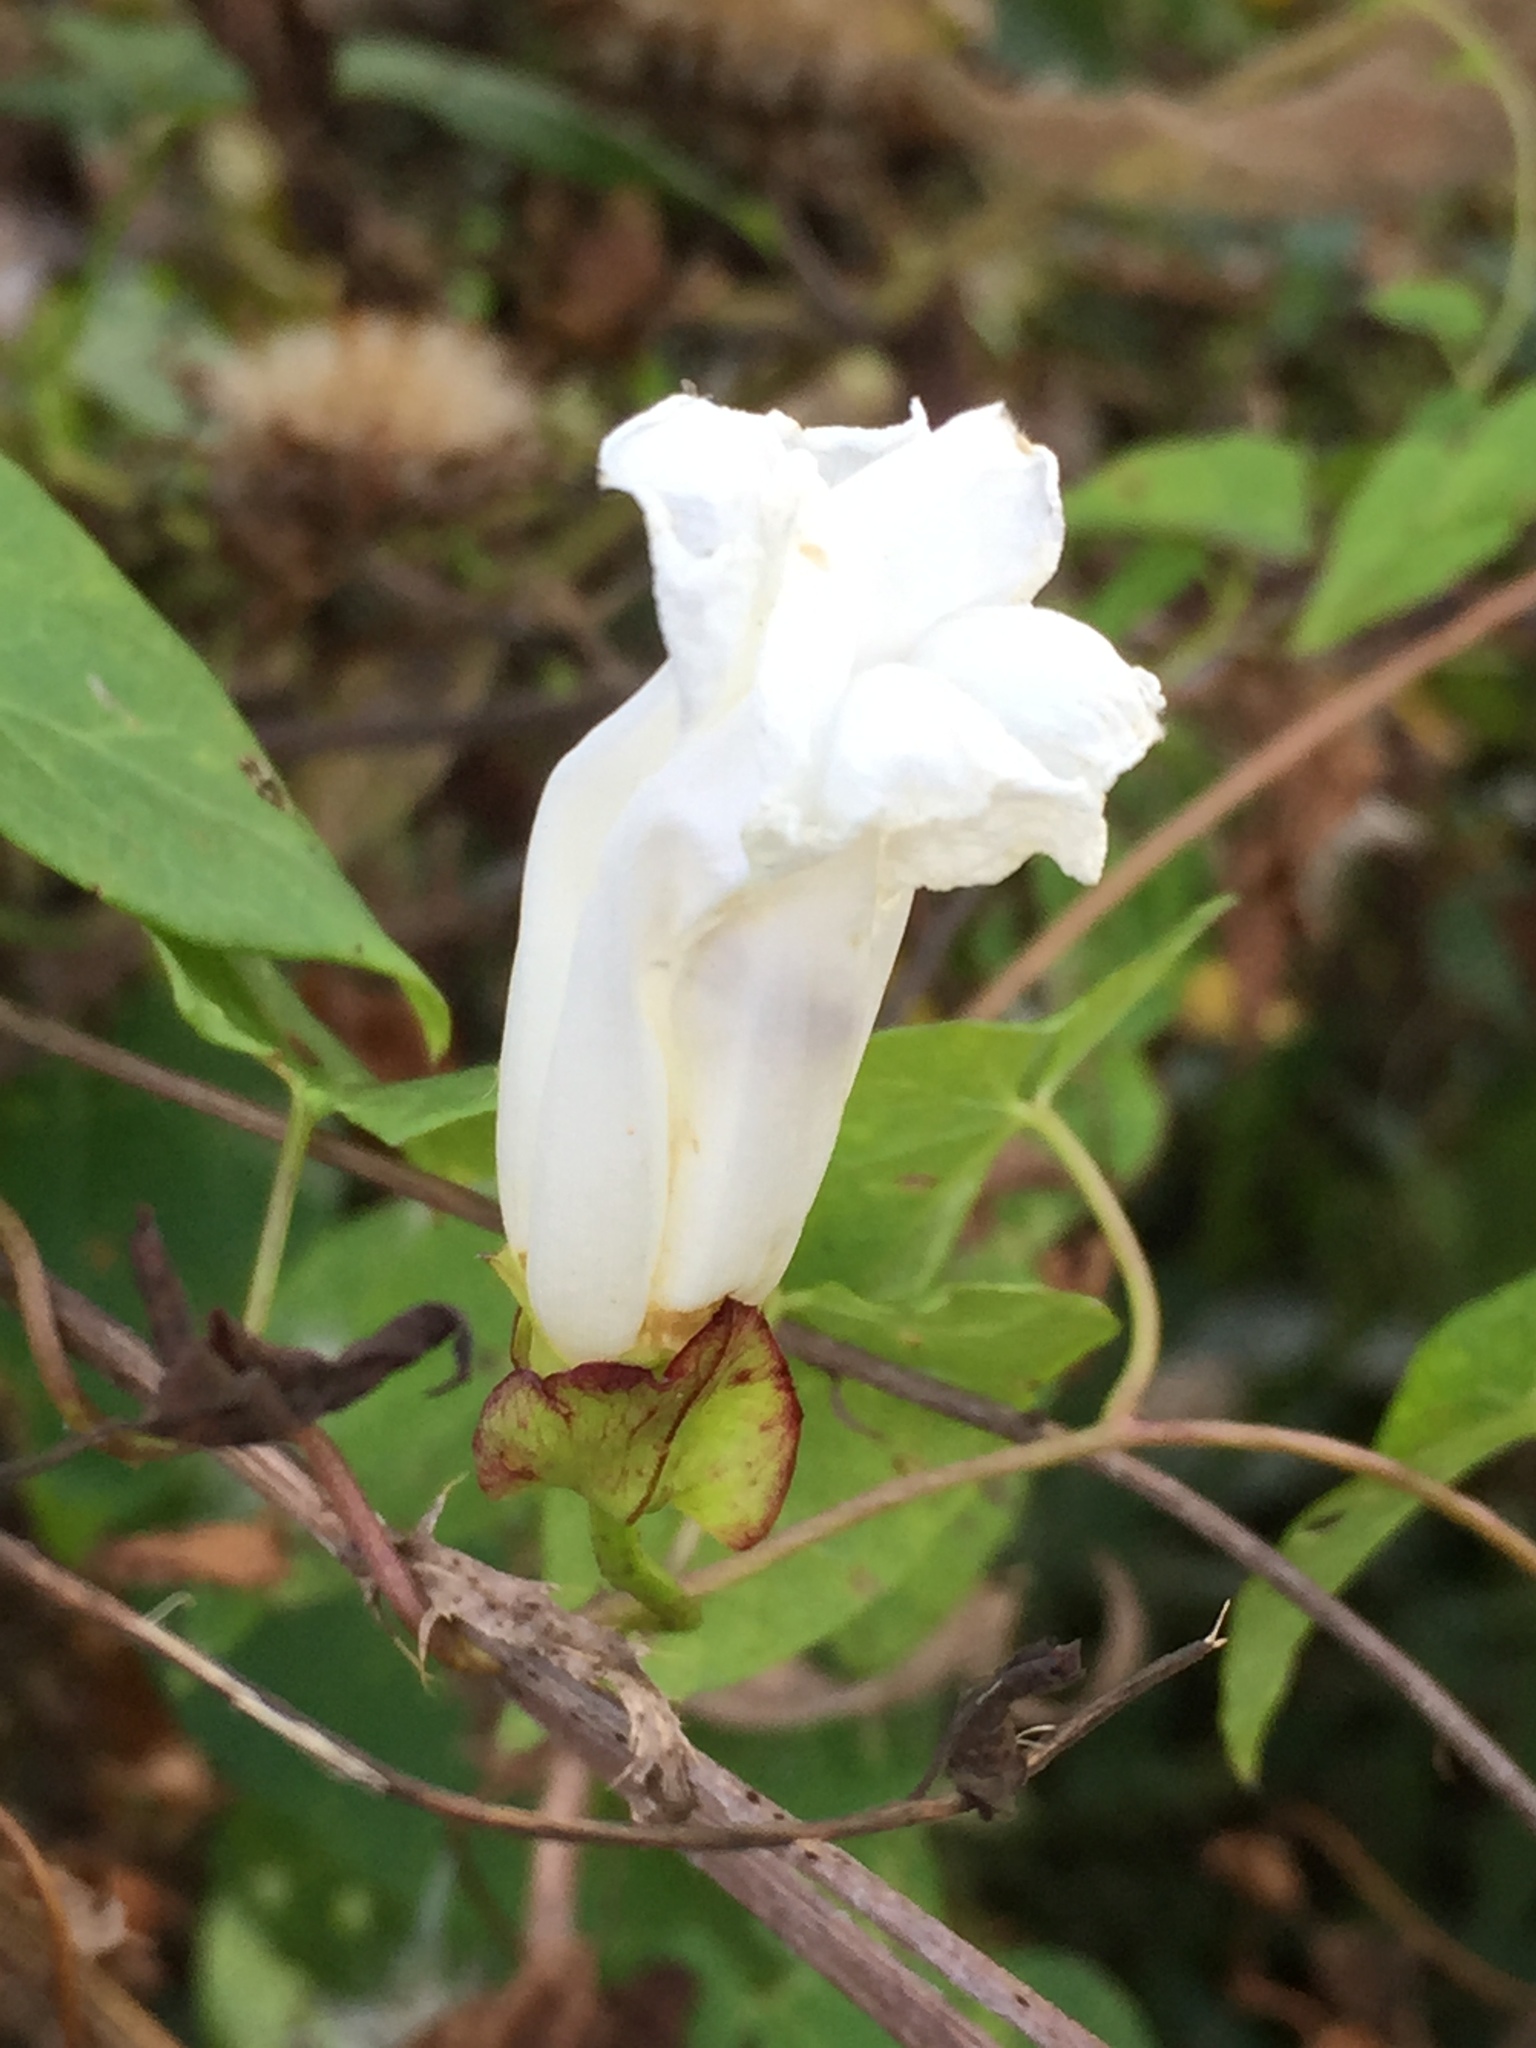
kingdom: Plantae
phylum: Tracheophyta
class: Magnoliopsida
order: Solanales
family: Convolvulaceae
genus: Calystegia
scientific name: Calystegia sepium
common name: Hedge bindweed
